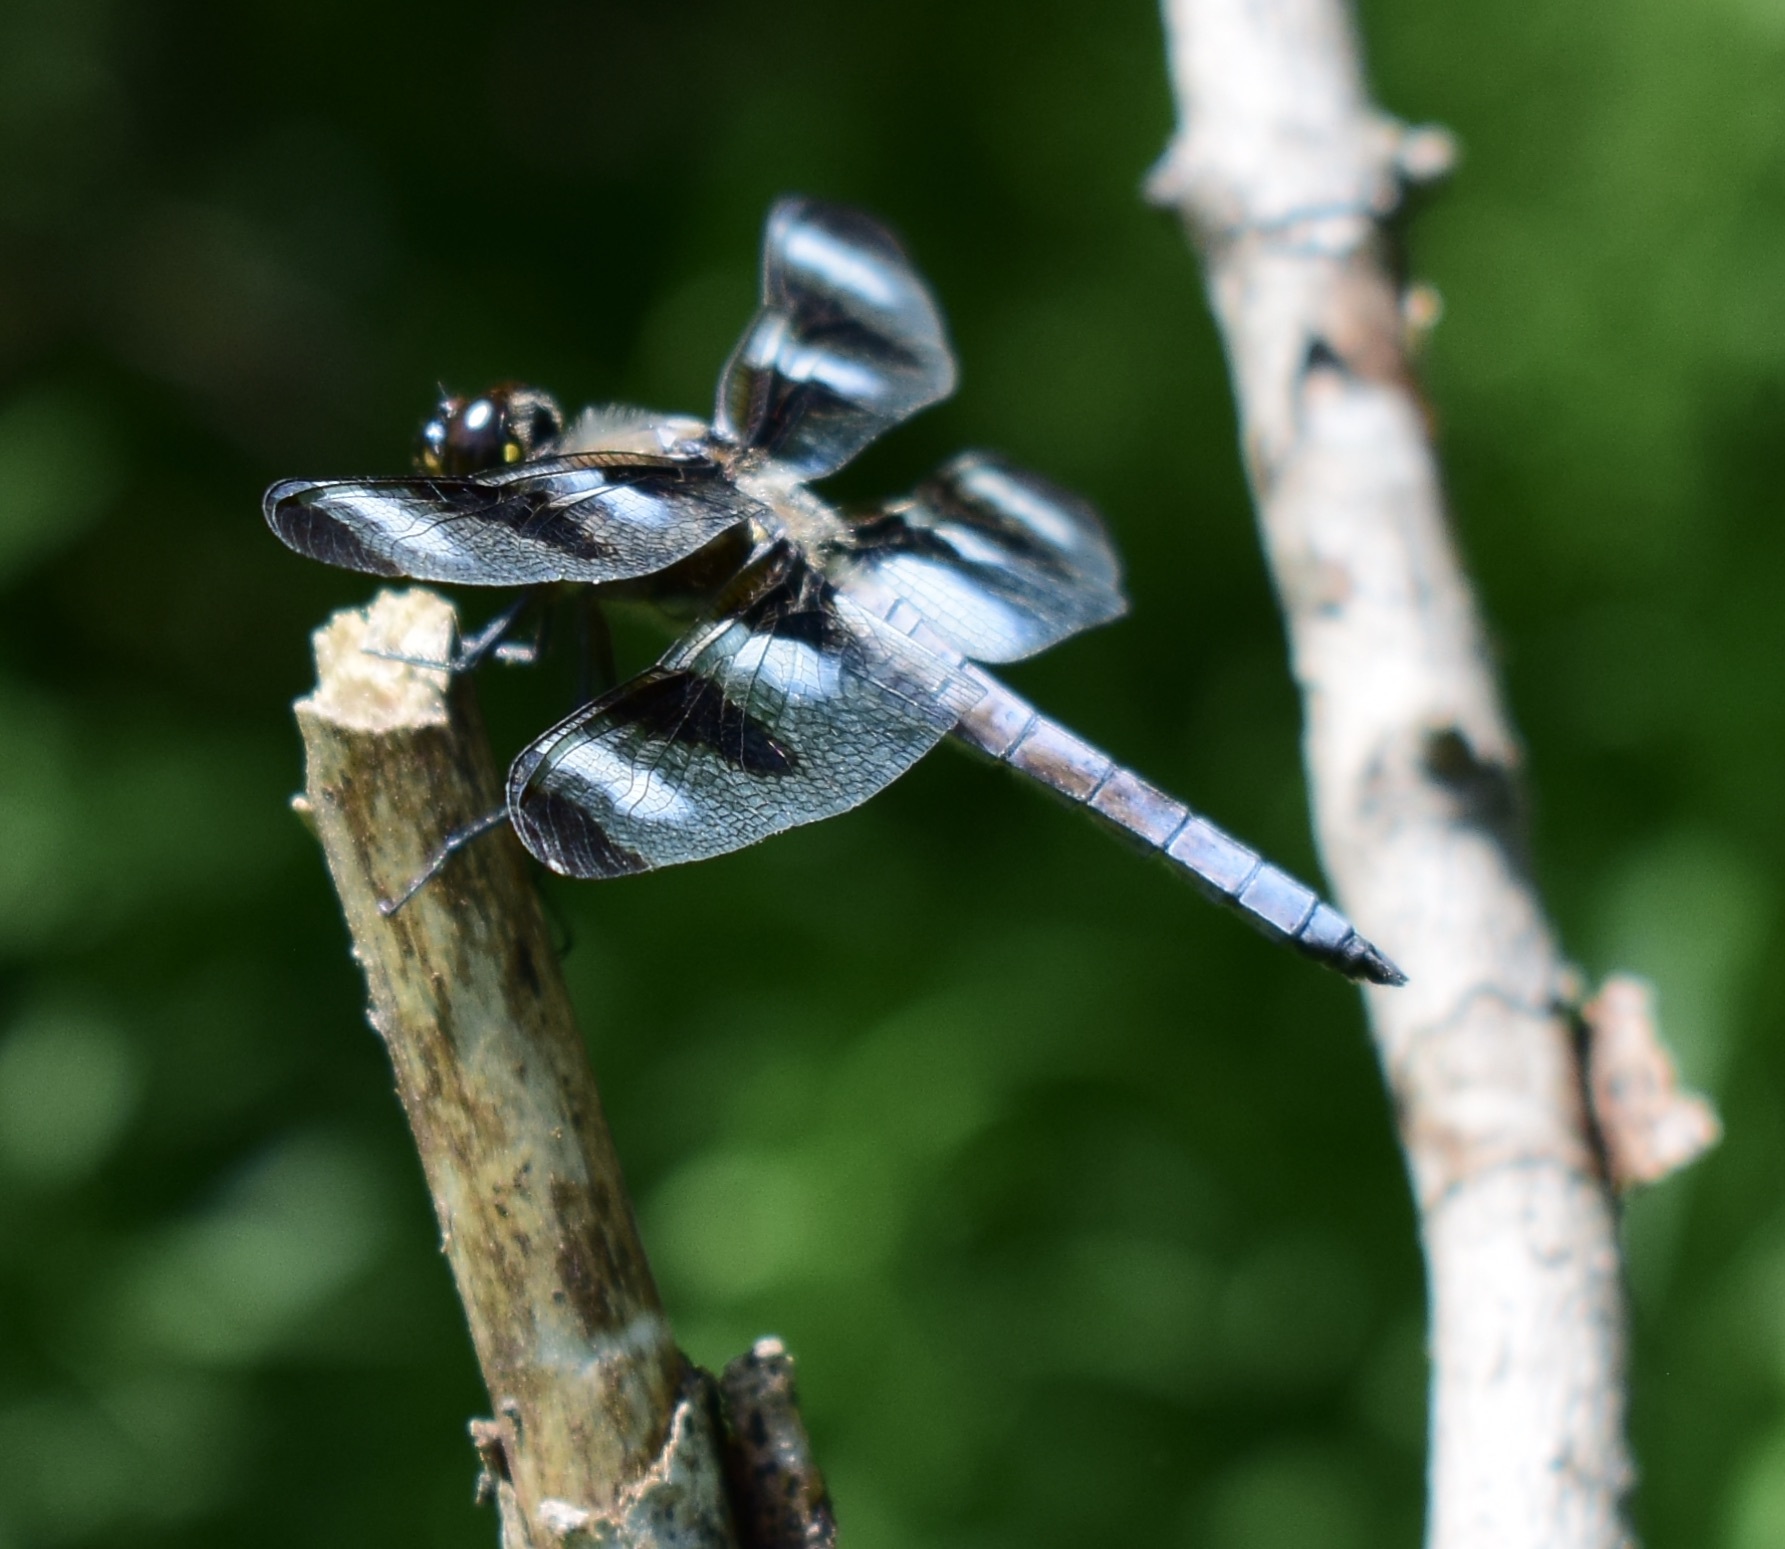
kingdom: Animalia
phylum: Arthropoda
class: Insecta
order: Odonata
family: Libellulidae
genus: Libellula
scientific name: Libellula pulchella
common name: Twelve-spotted skimmer
